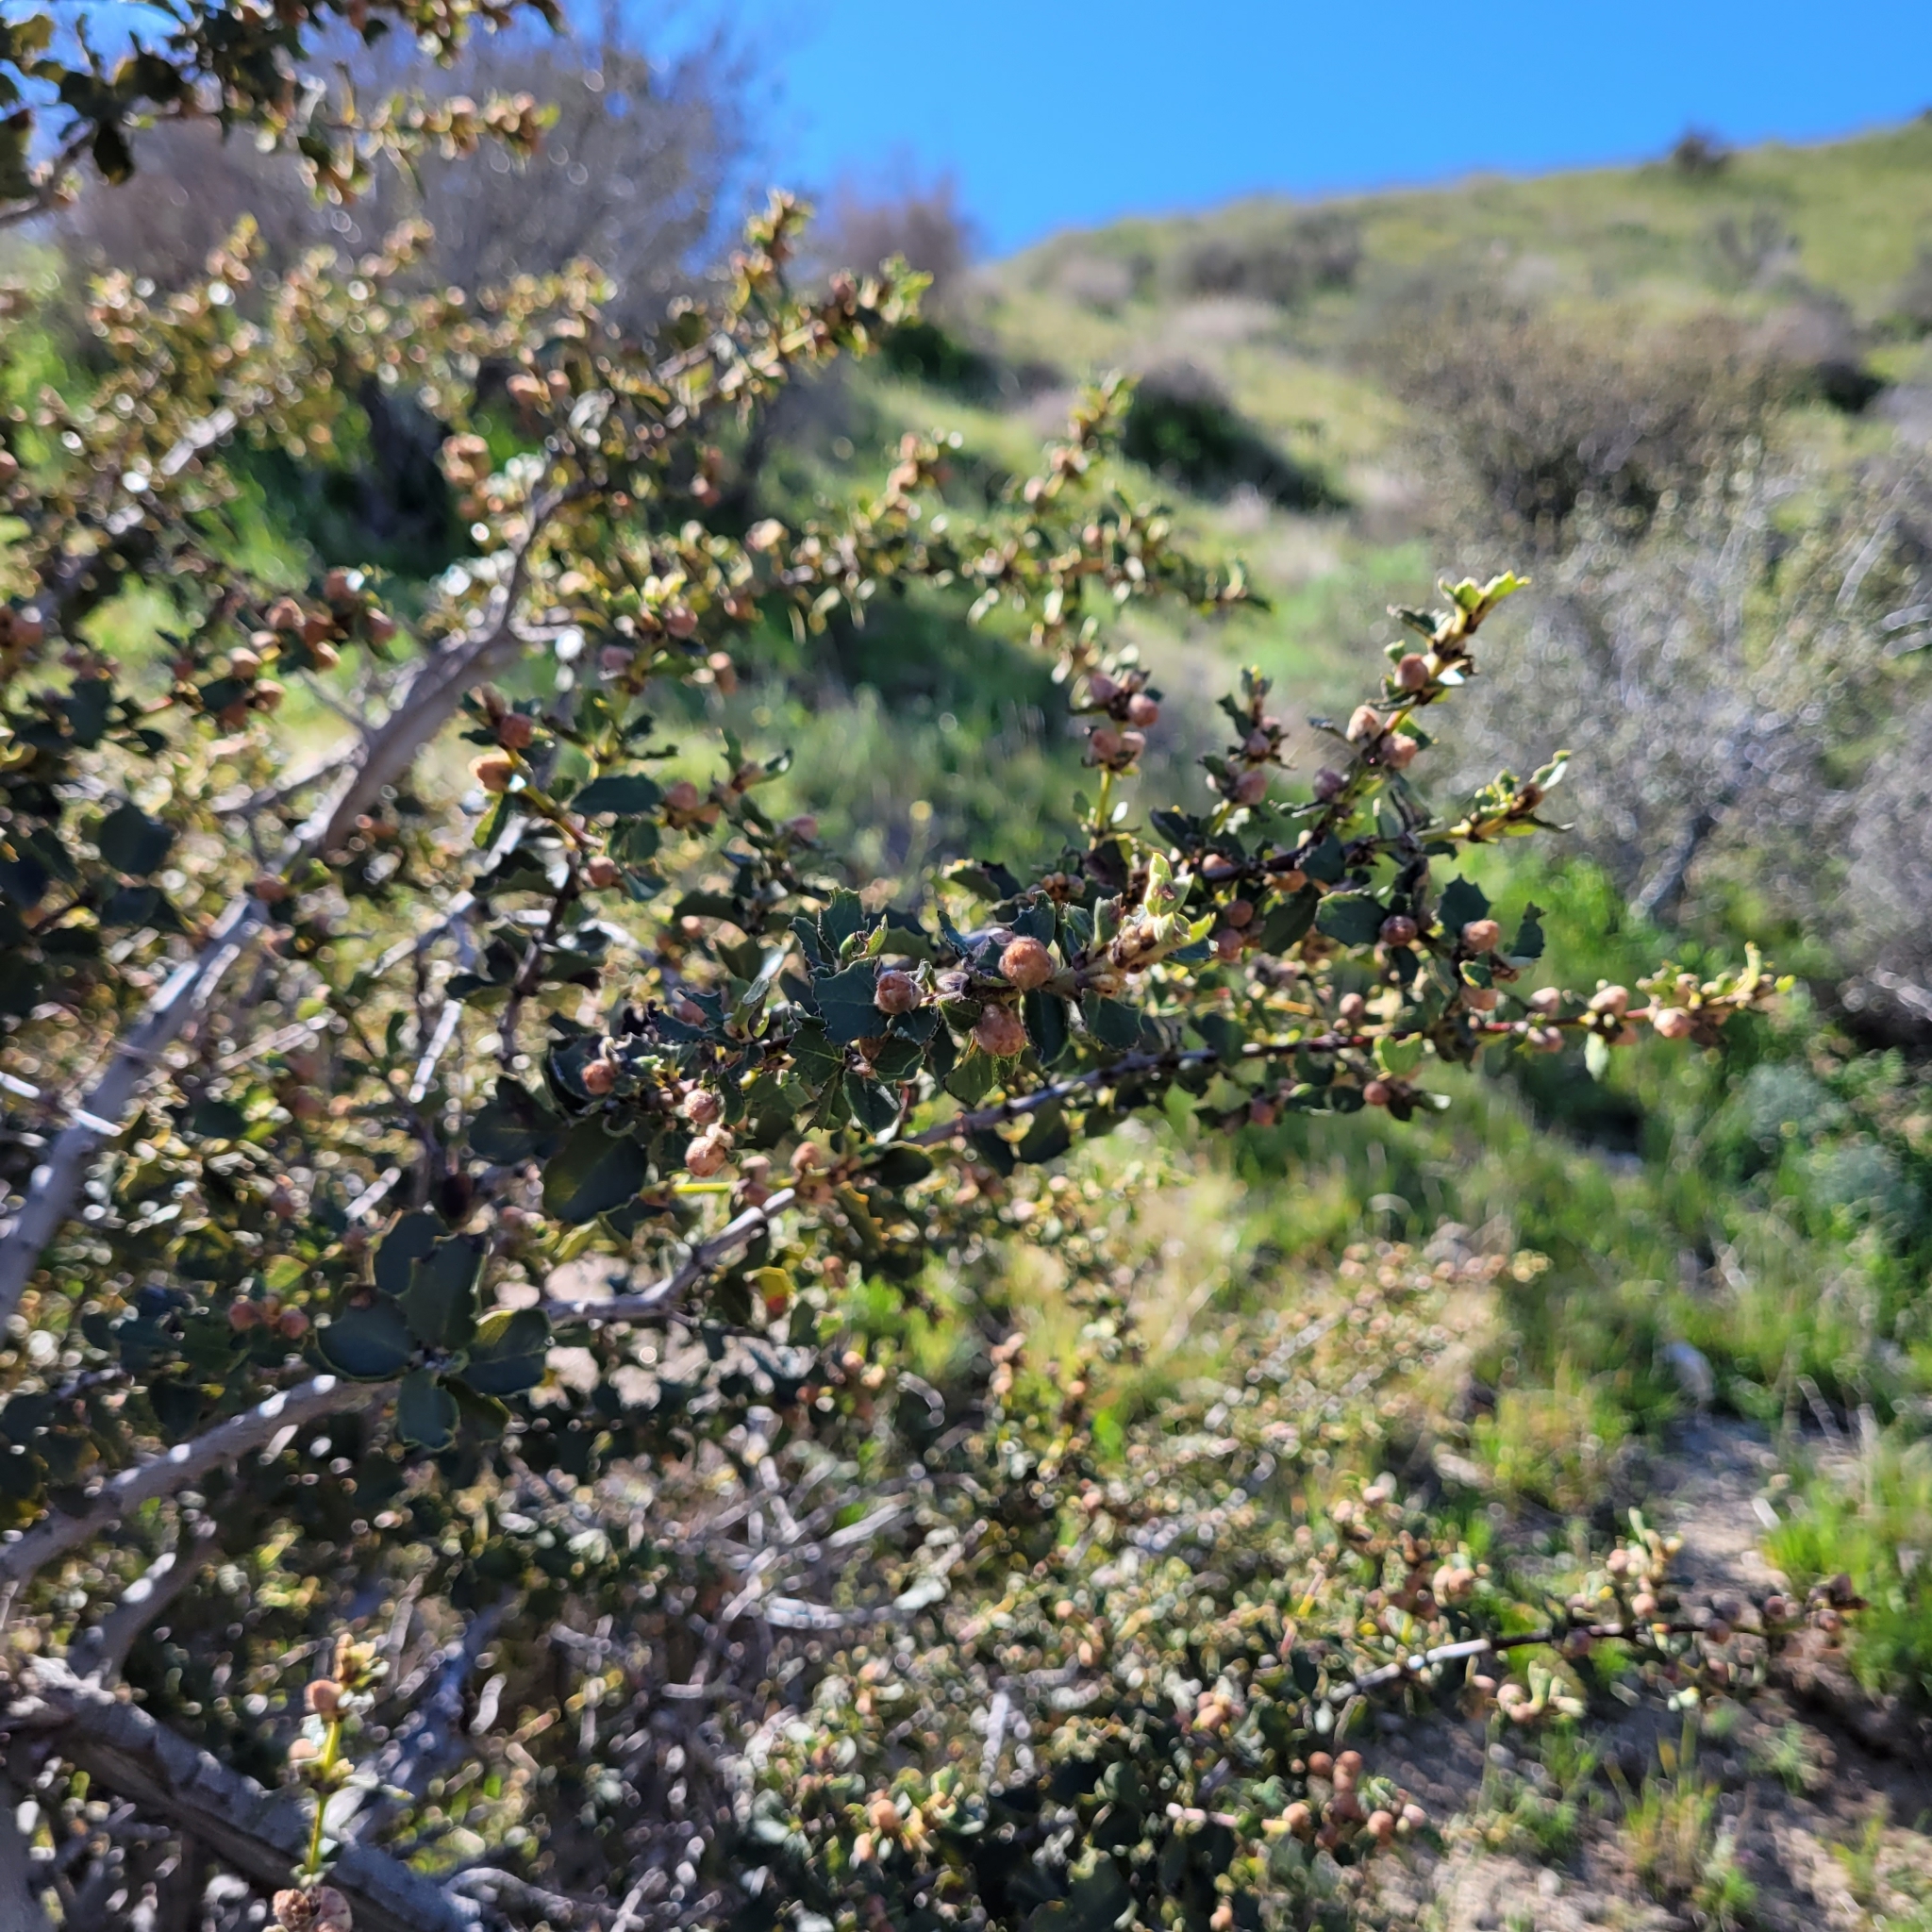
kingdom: Plantae
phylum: Tracheophyta
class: Magnoliopsida
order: Rosales
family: Rhamnaceae
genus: Ceanothus
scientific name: Ceanothus perplexans
